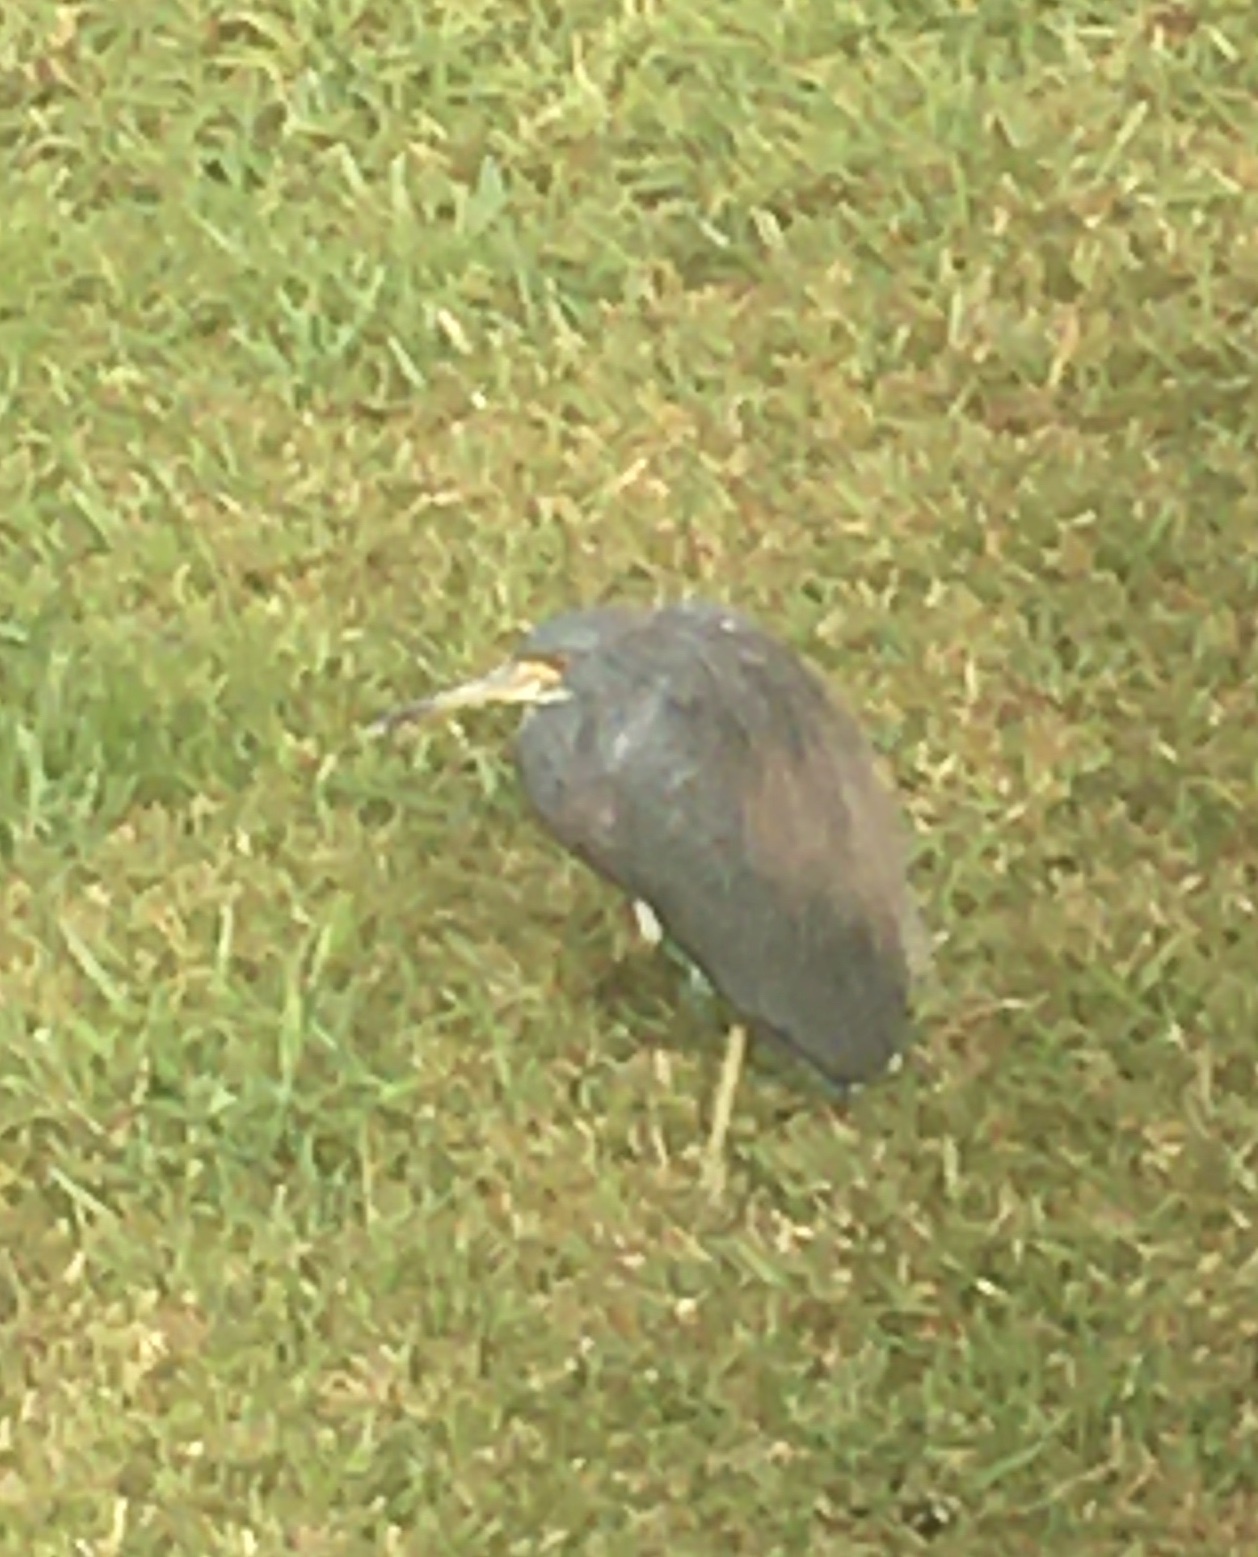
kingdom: Animalia
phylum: Chordata
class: Aves
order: Pelecaniformes
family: Ardeidae
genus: Egretta
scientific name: Egretta tricolor
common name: Tricolored heron
